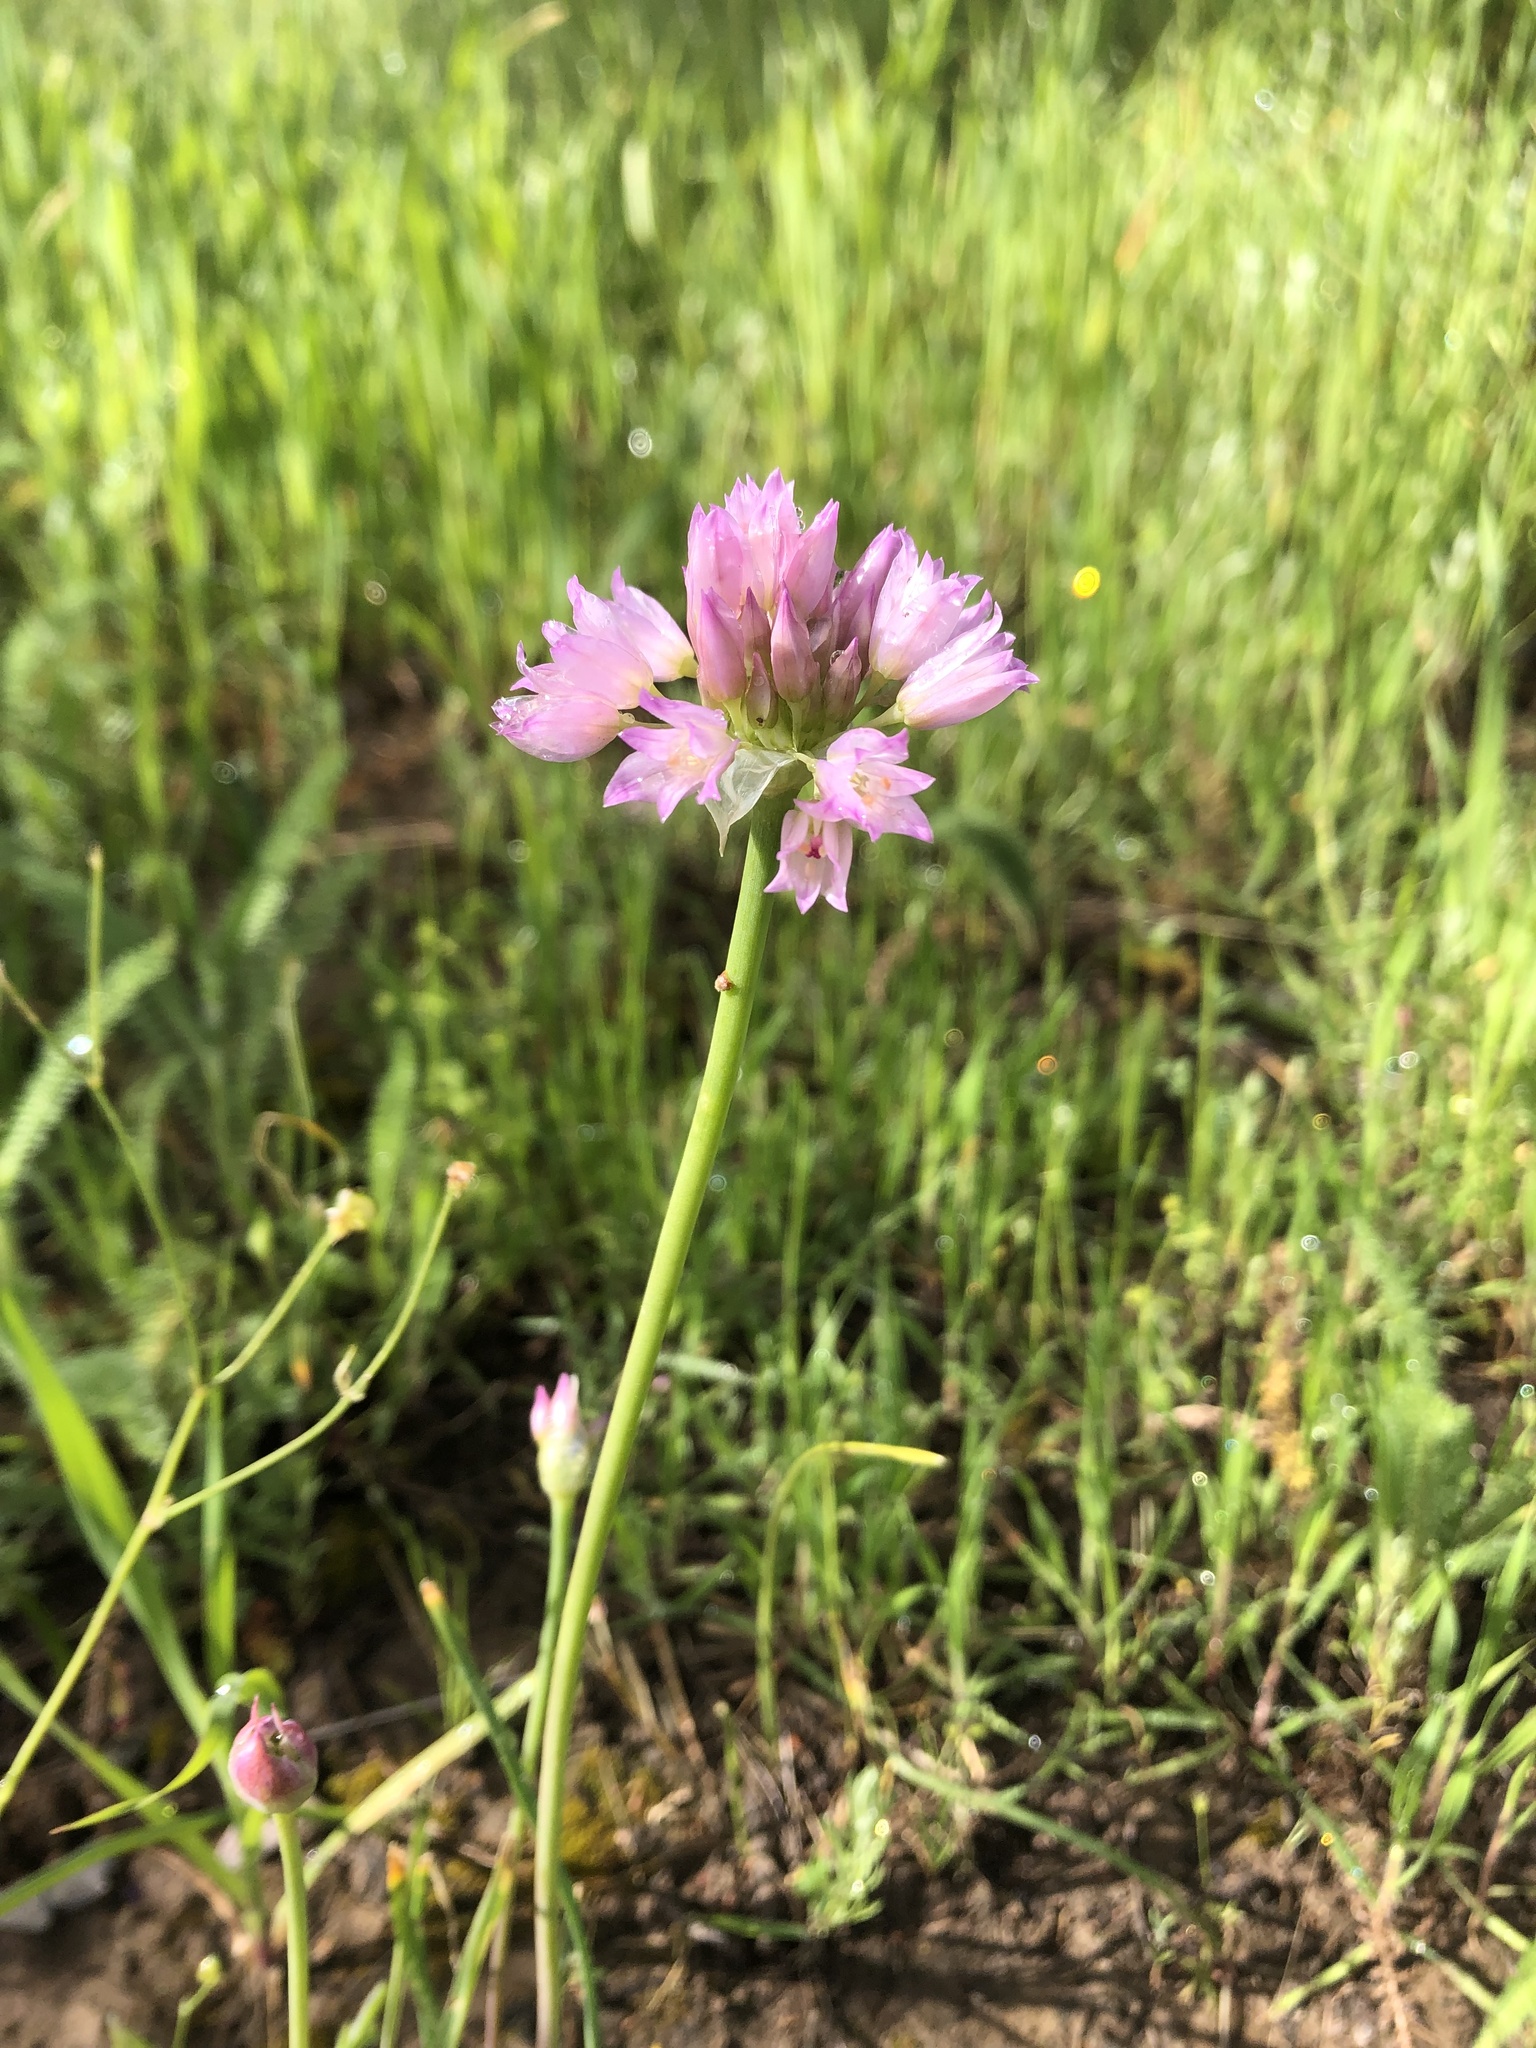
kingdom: Plantae
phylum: Tracheophyta
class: Liliopsida
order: Asparagales
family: Amaryllidaceae
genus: Allium
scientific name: Allium serra
